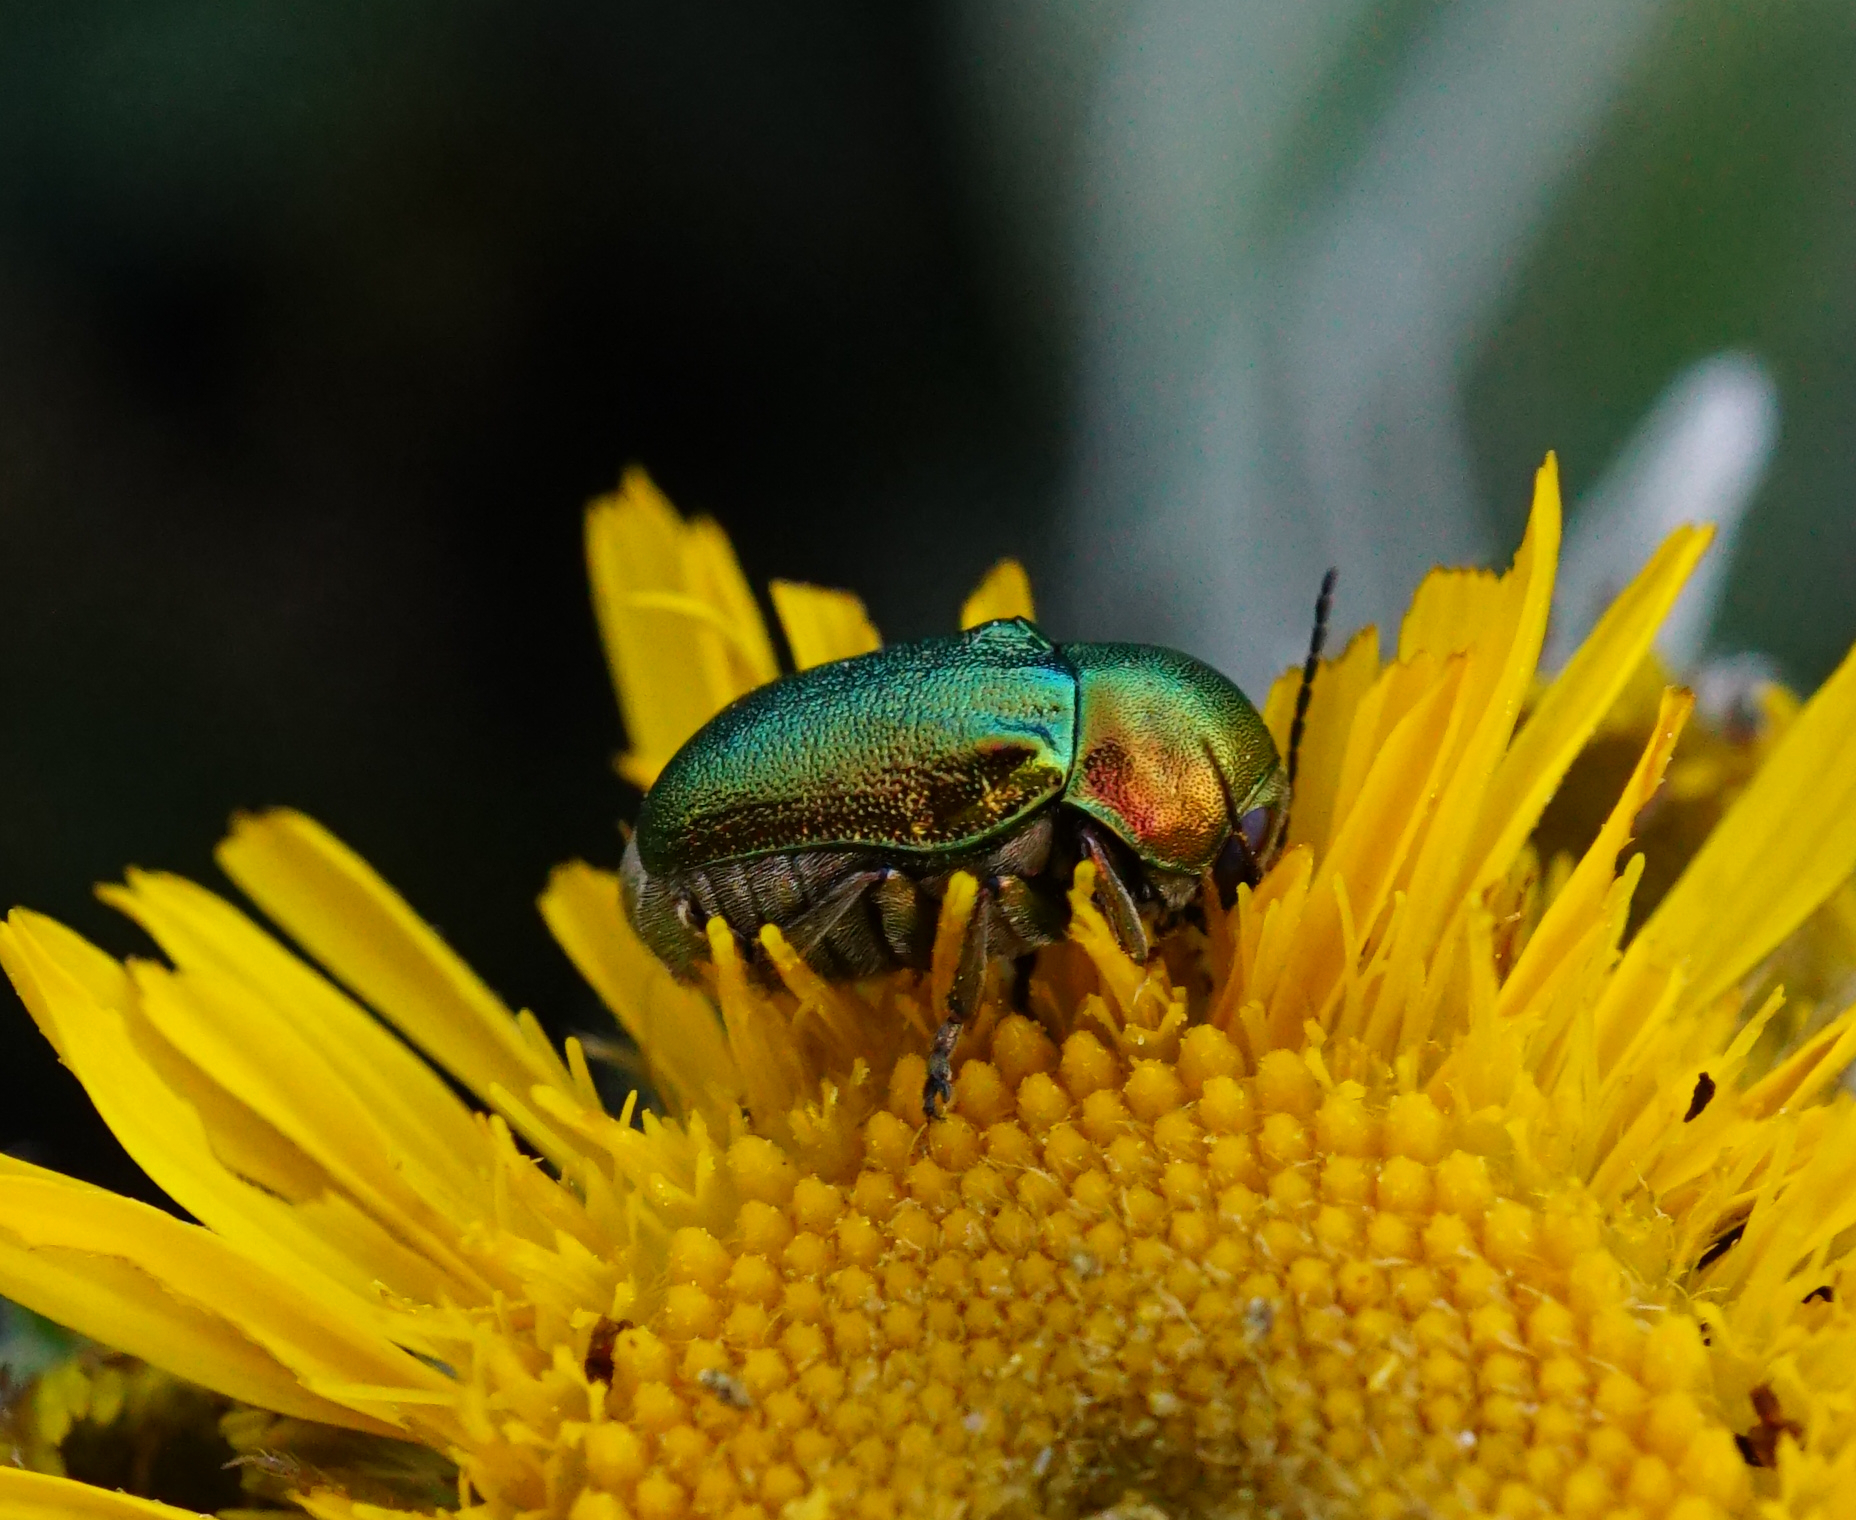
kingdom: Animalia
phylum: Arthropoda
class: Insecta
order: Coleoptera
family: Chrysomelidae
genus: Cryptocephalus
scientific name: Cryptocephalus
